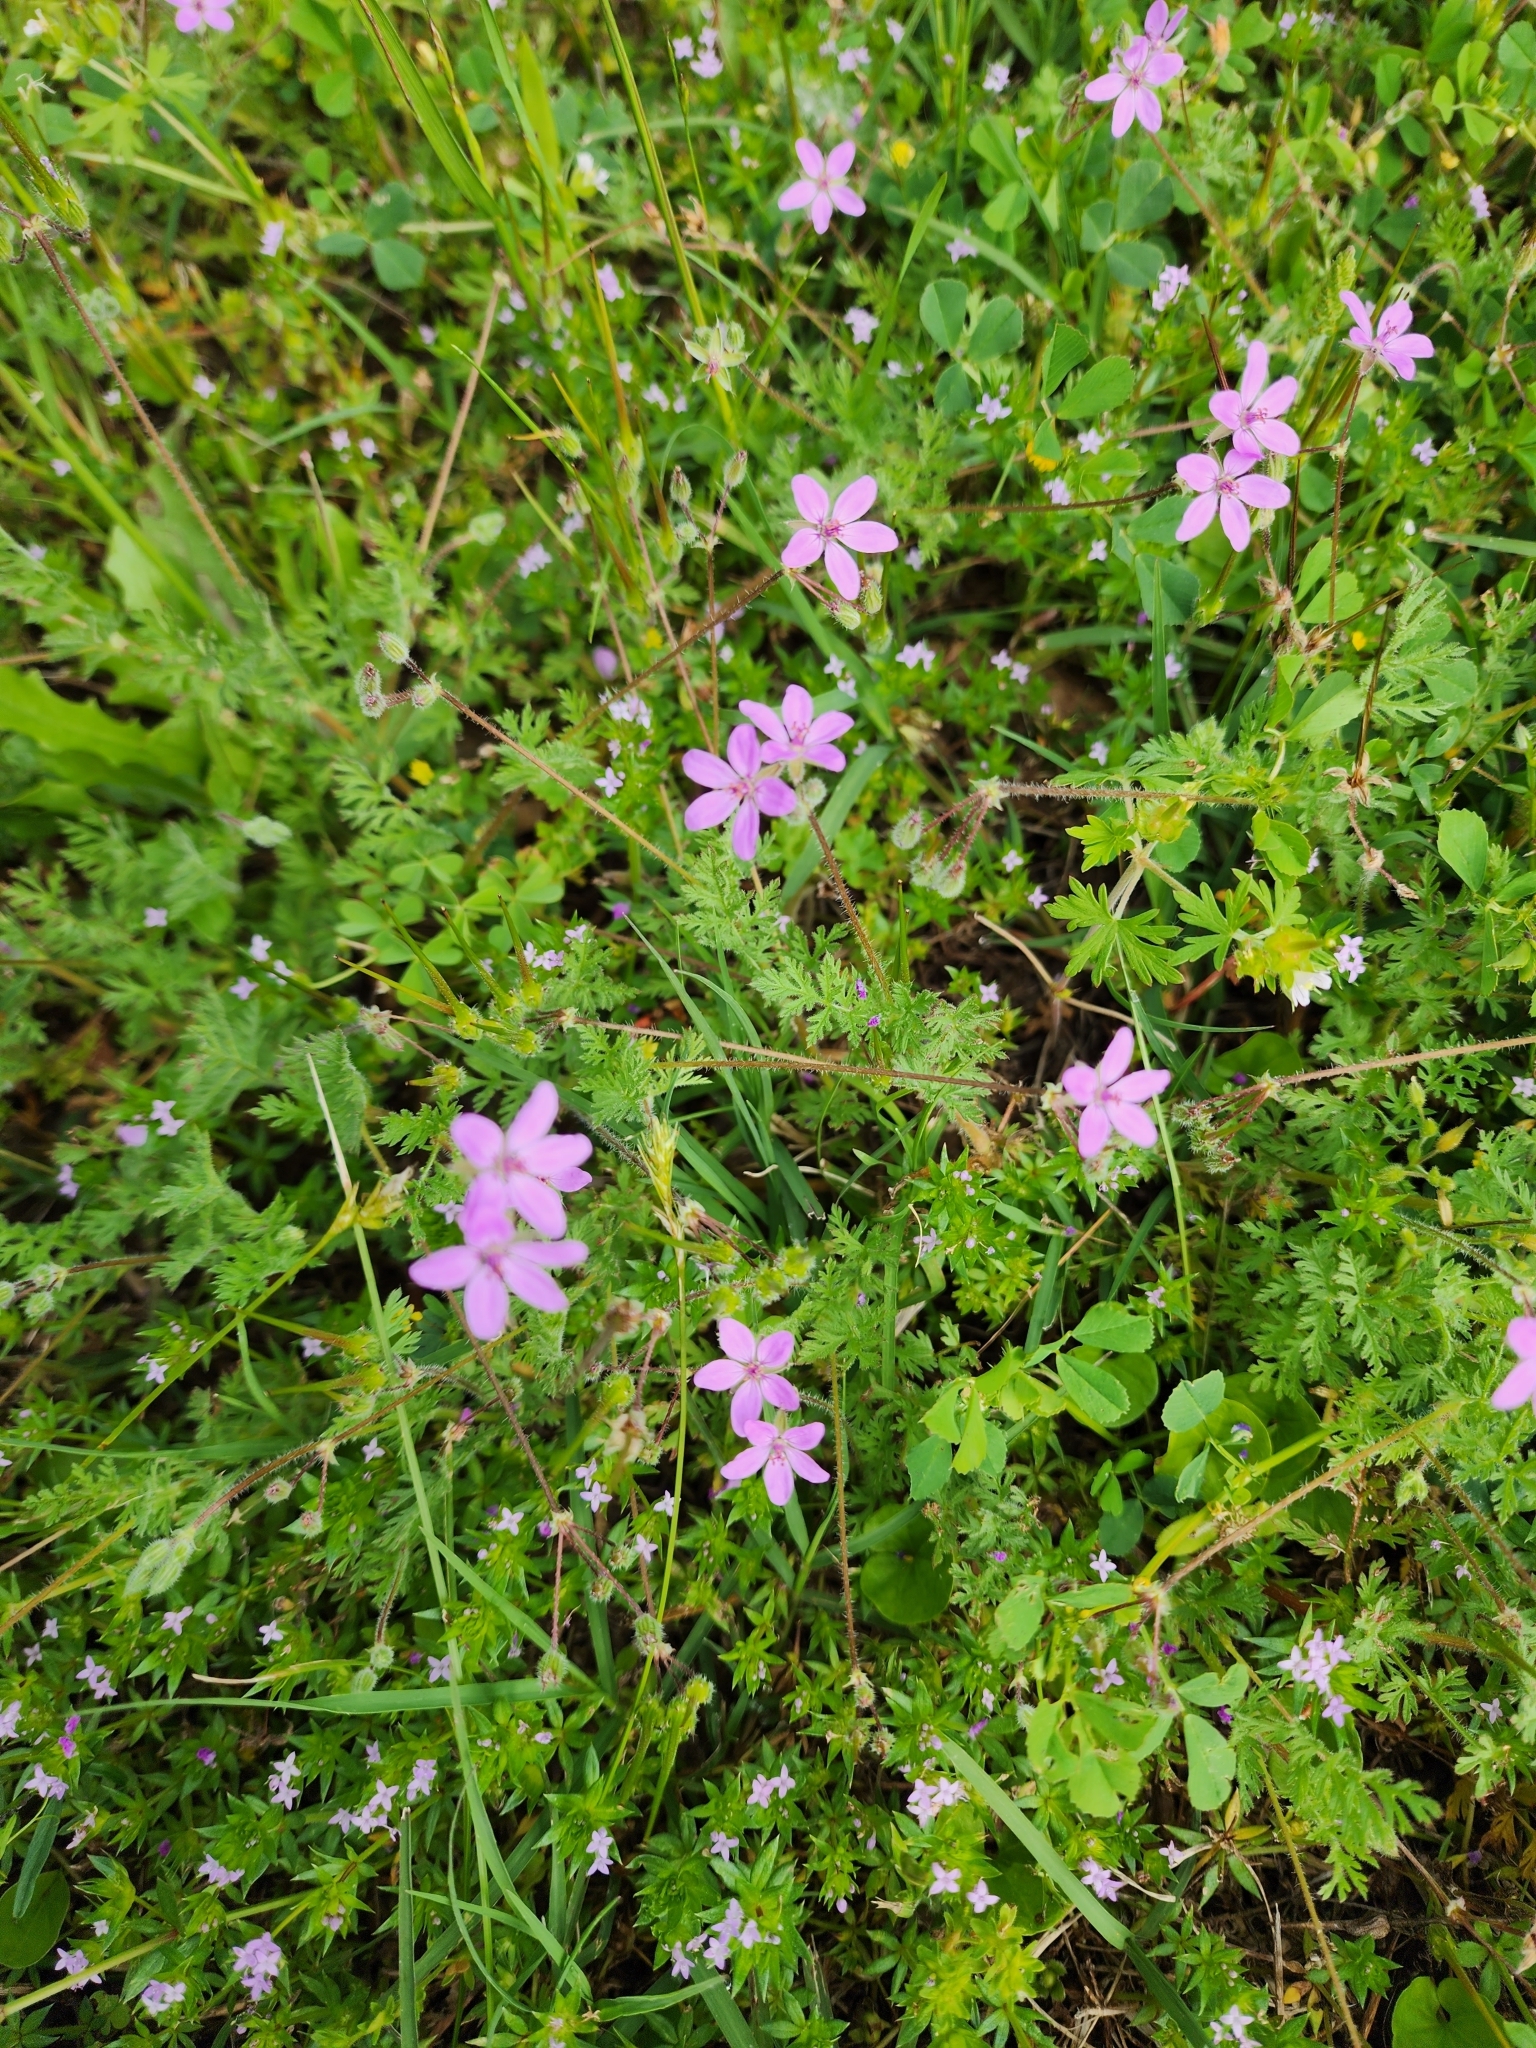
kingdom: Plantae
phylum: Tracheophyta
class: Magnoliopsida
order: Geraniales
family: Geraniaceae
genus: Erodium
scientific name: Erodium cicutarium
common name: Common stork's-bill
